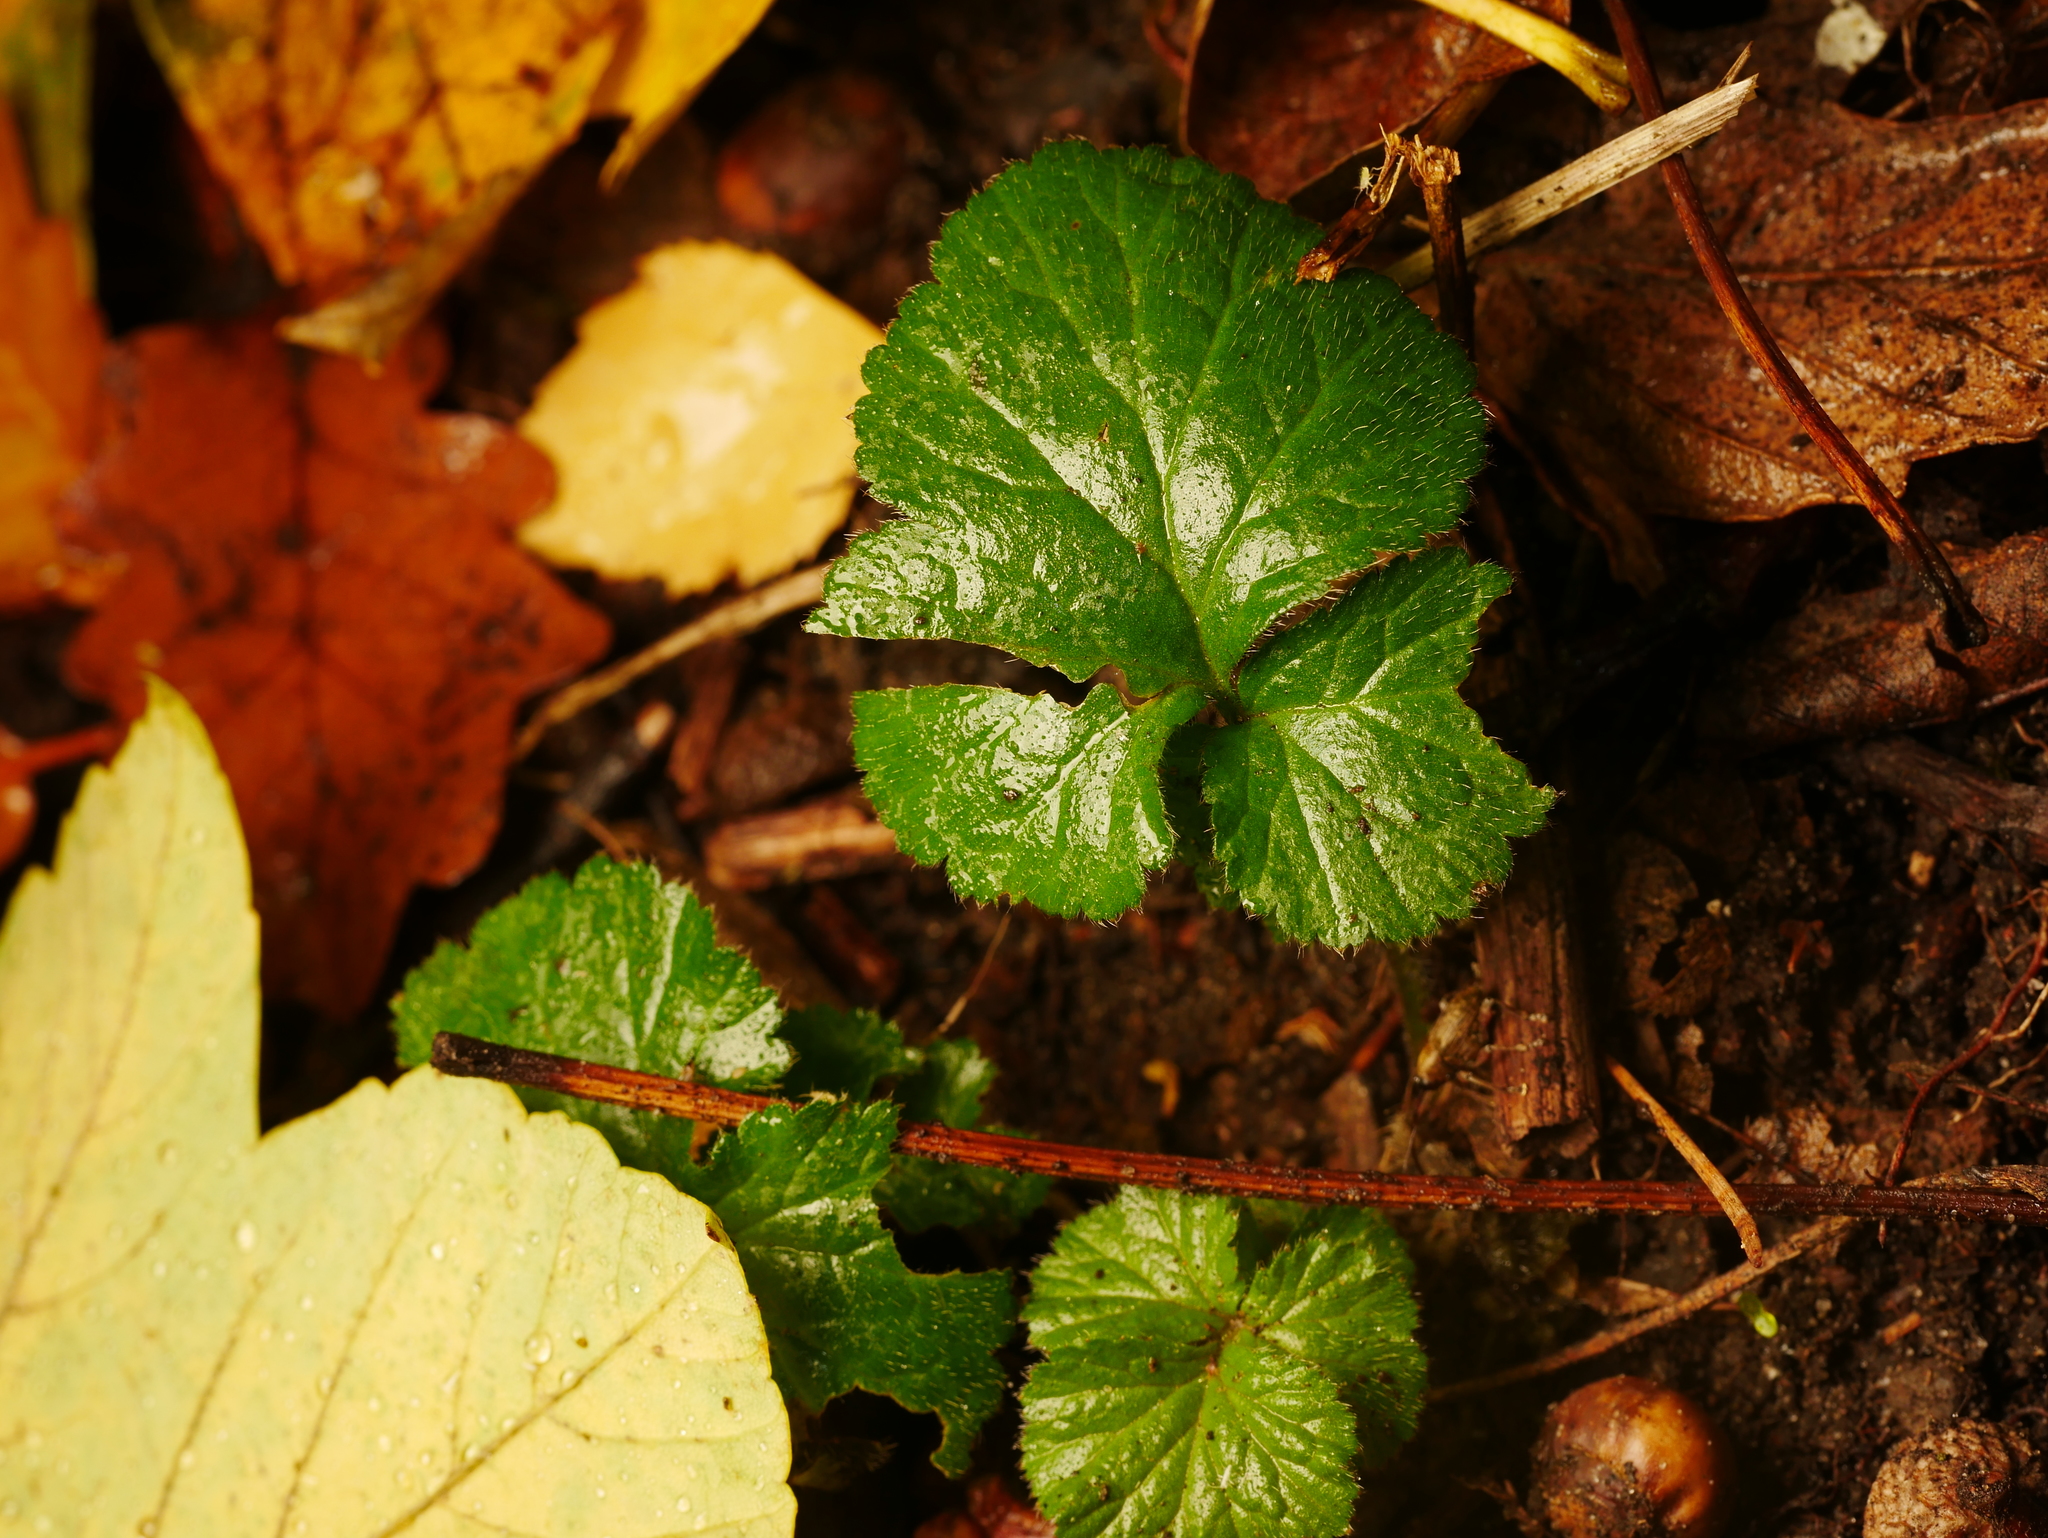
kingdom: Plantae
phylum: Tracheophyta
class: Magnoliopsida
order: Rosales
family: Rosaceae
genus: Geum
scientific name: Geum urbanum
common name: Wood avens
